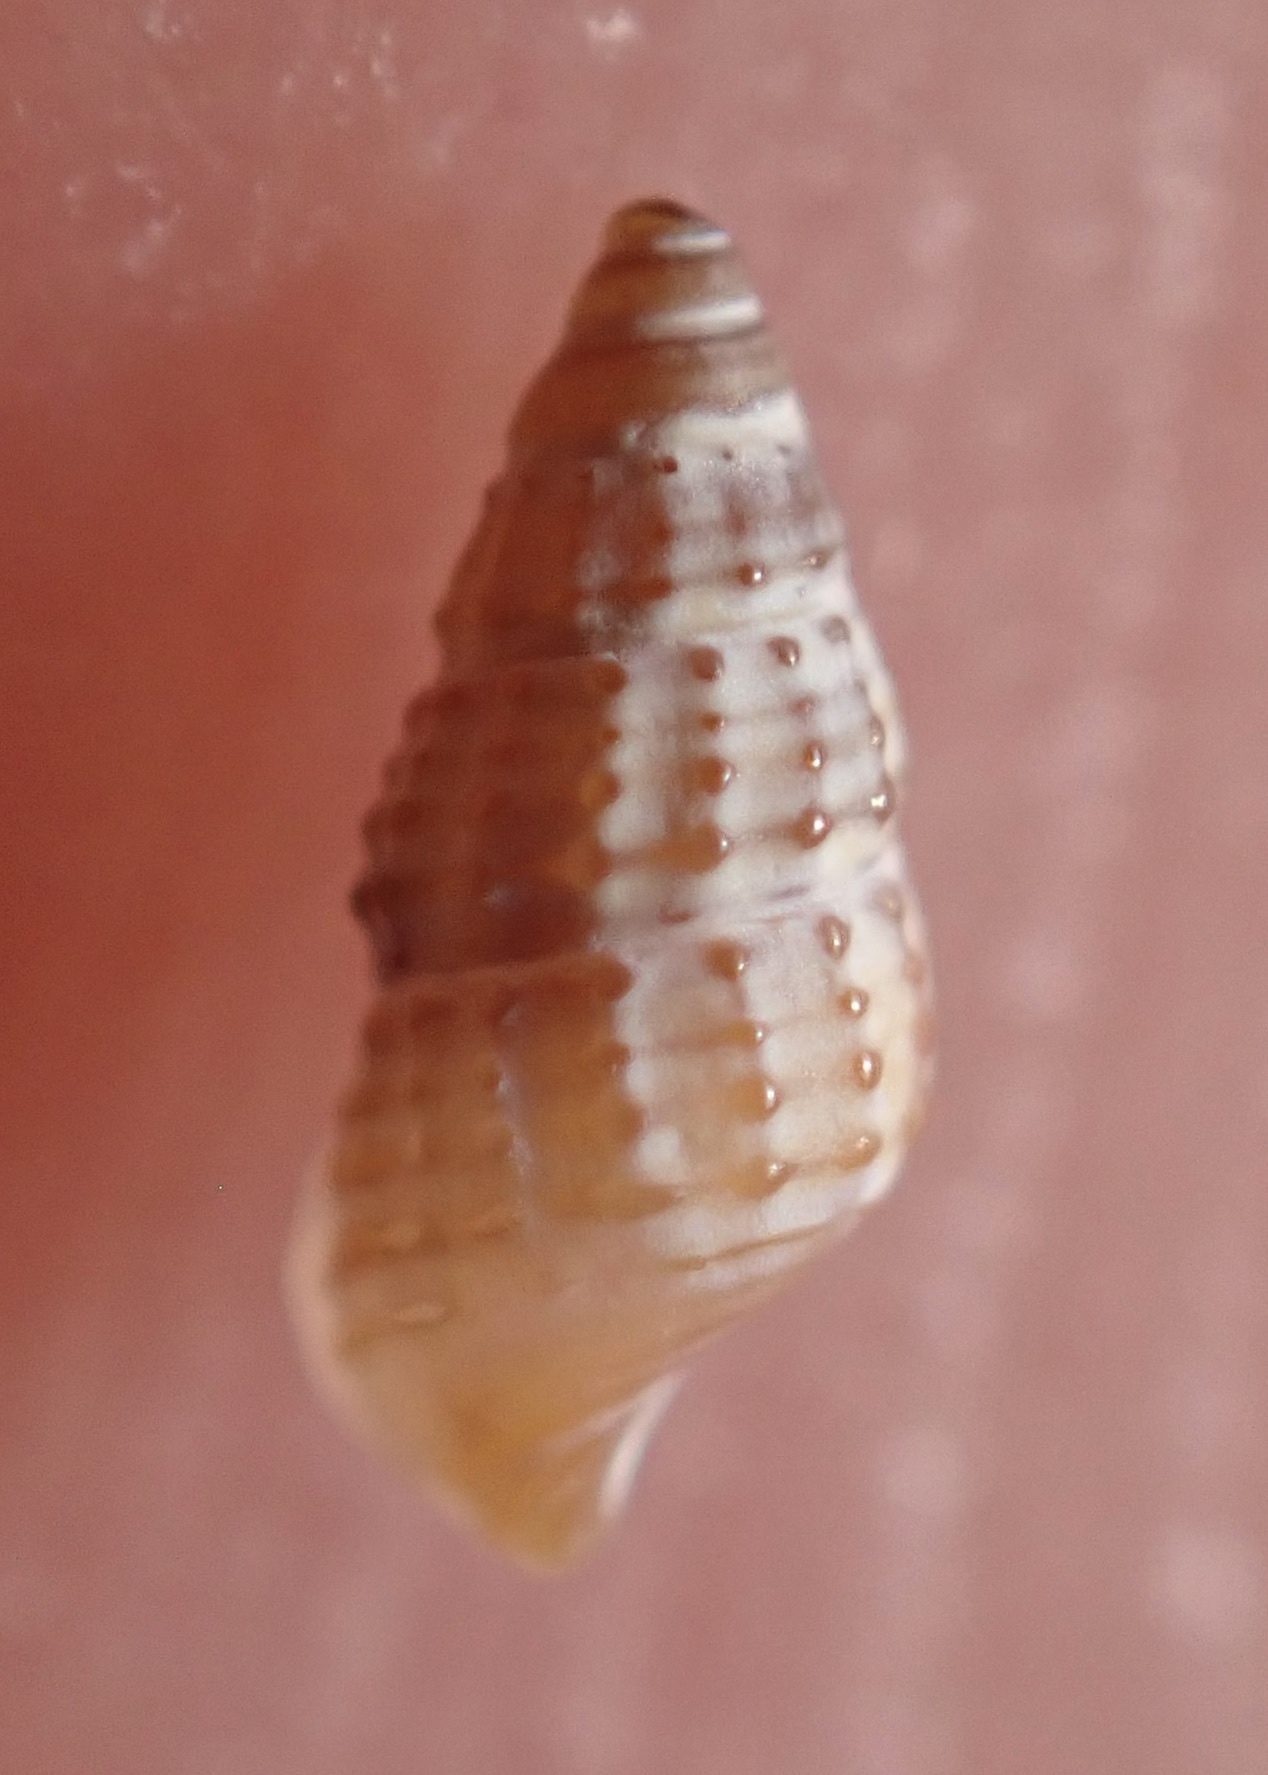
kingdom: Animalia
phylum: Mollusca
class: Gastropoda
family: Cerithiidae
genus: Bittiolum
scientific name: Bittiolum varium
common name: Grass cerith
